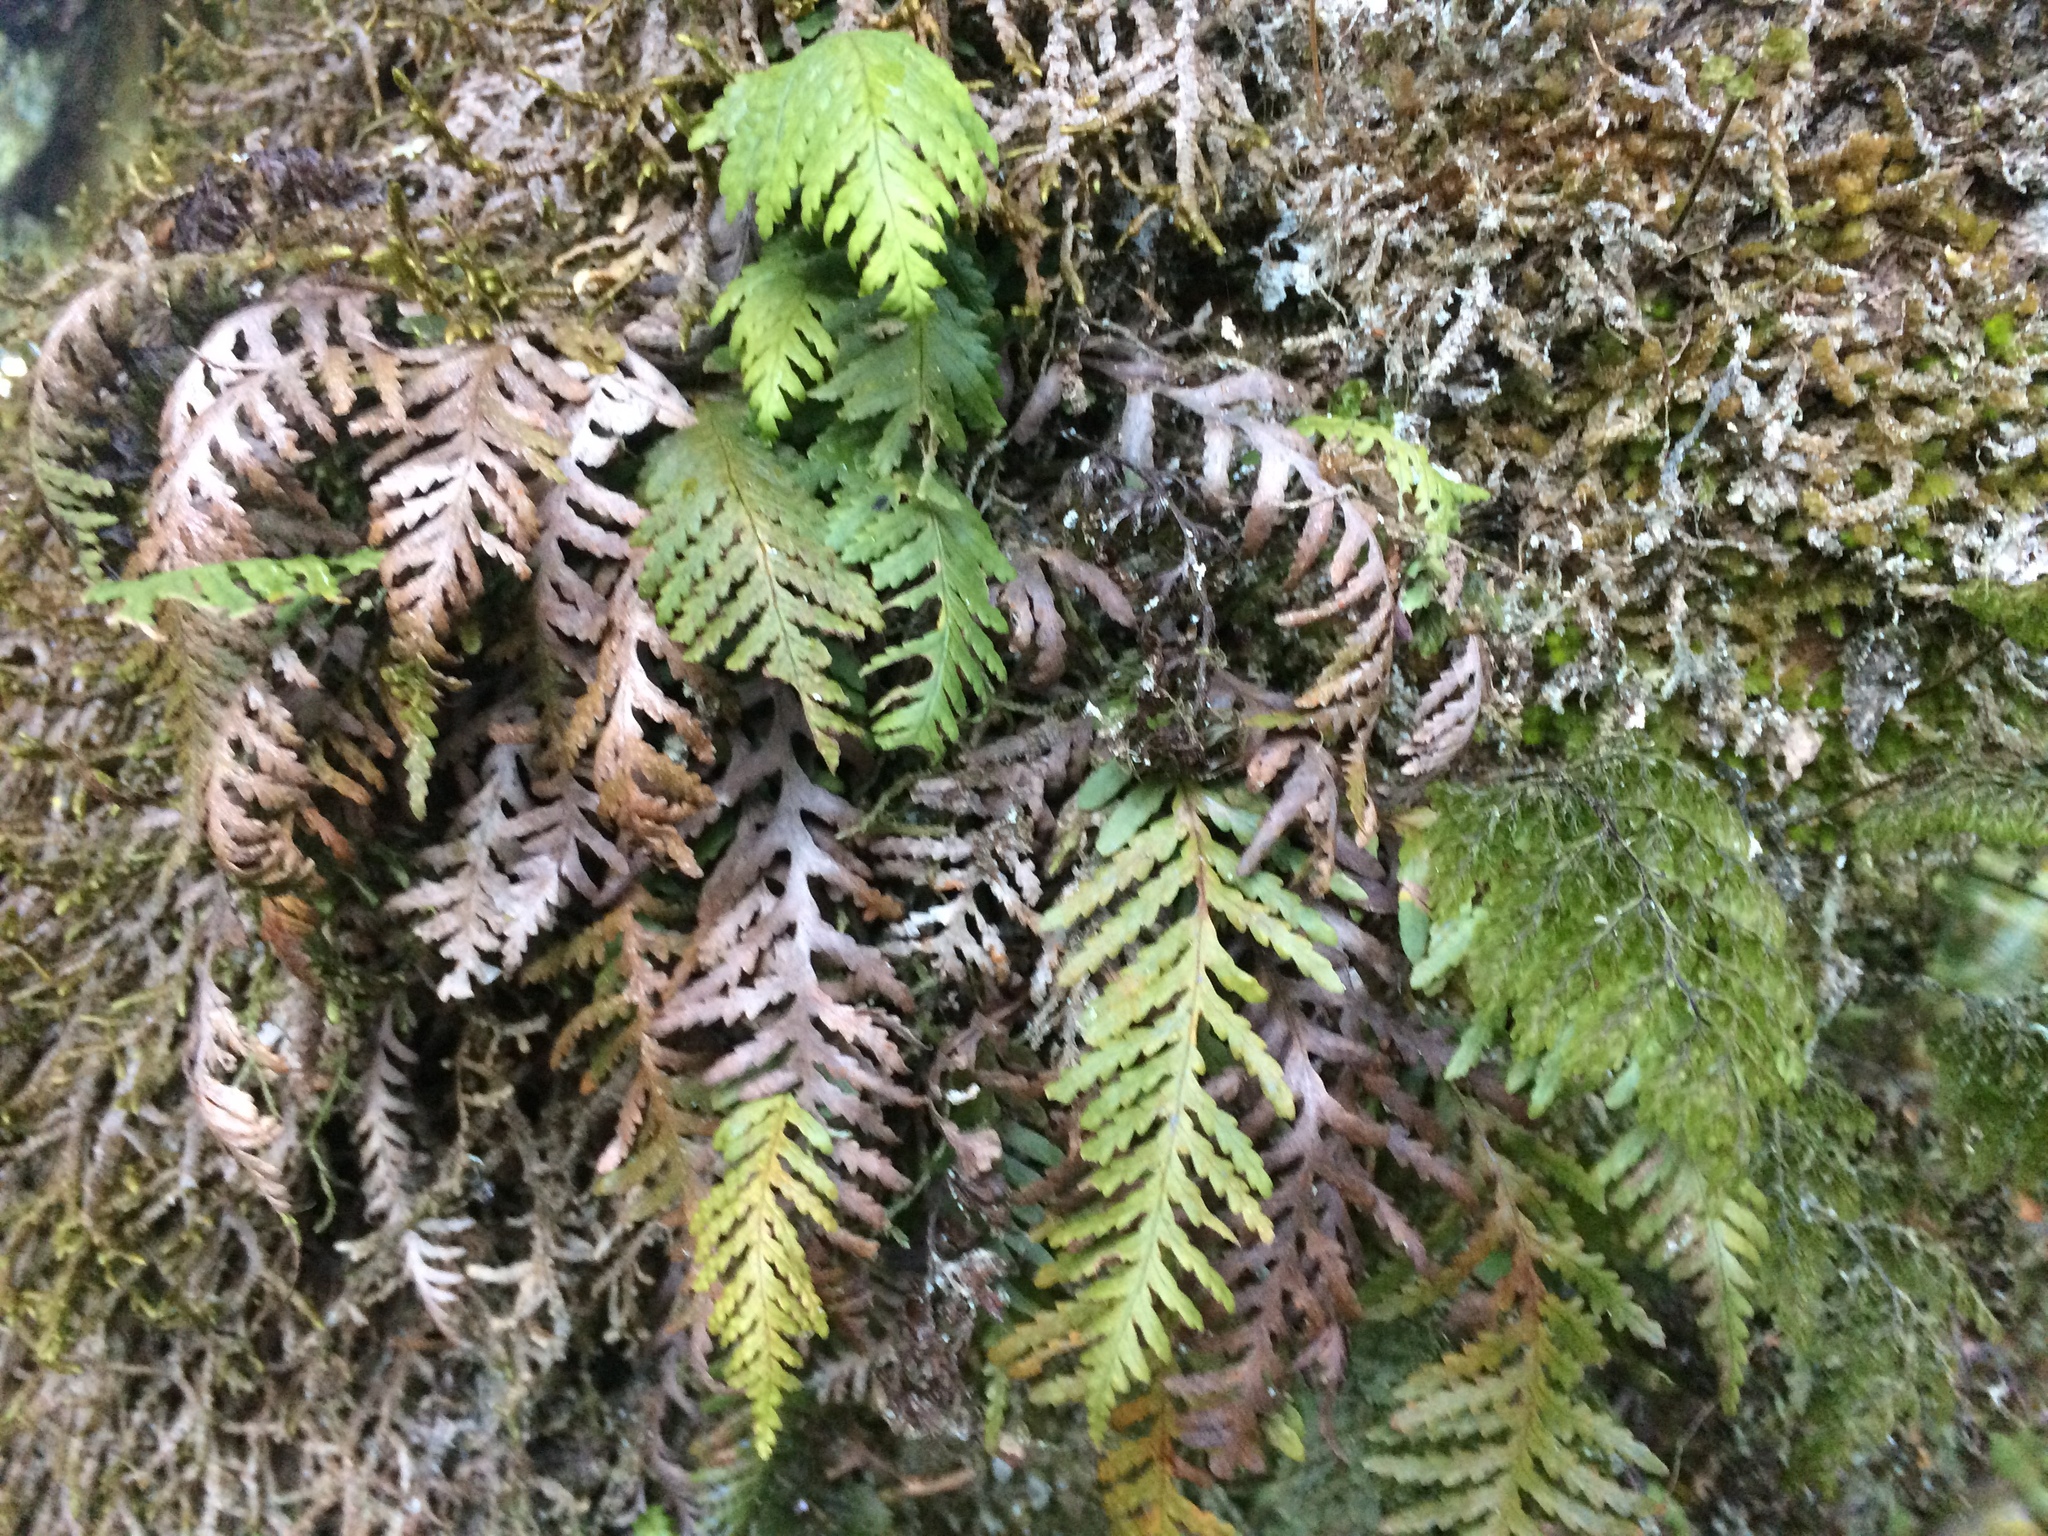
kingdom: Plantae
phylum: Tracheophyta
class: Polypodiopsida
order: Polypodiales
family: Polypodiaceae
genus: Notogrammitis
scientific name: Notogrammitis heterophylla
